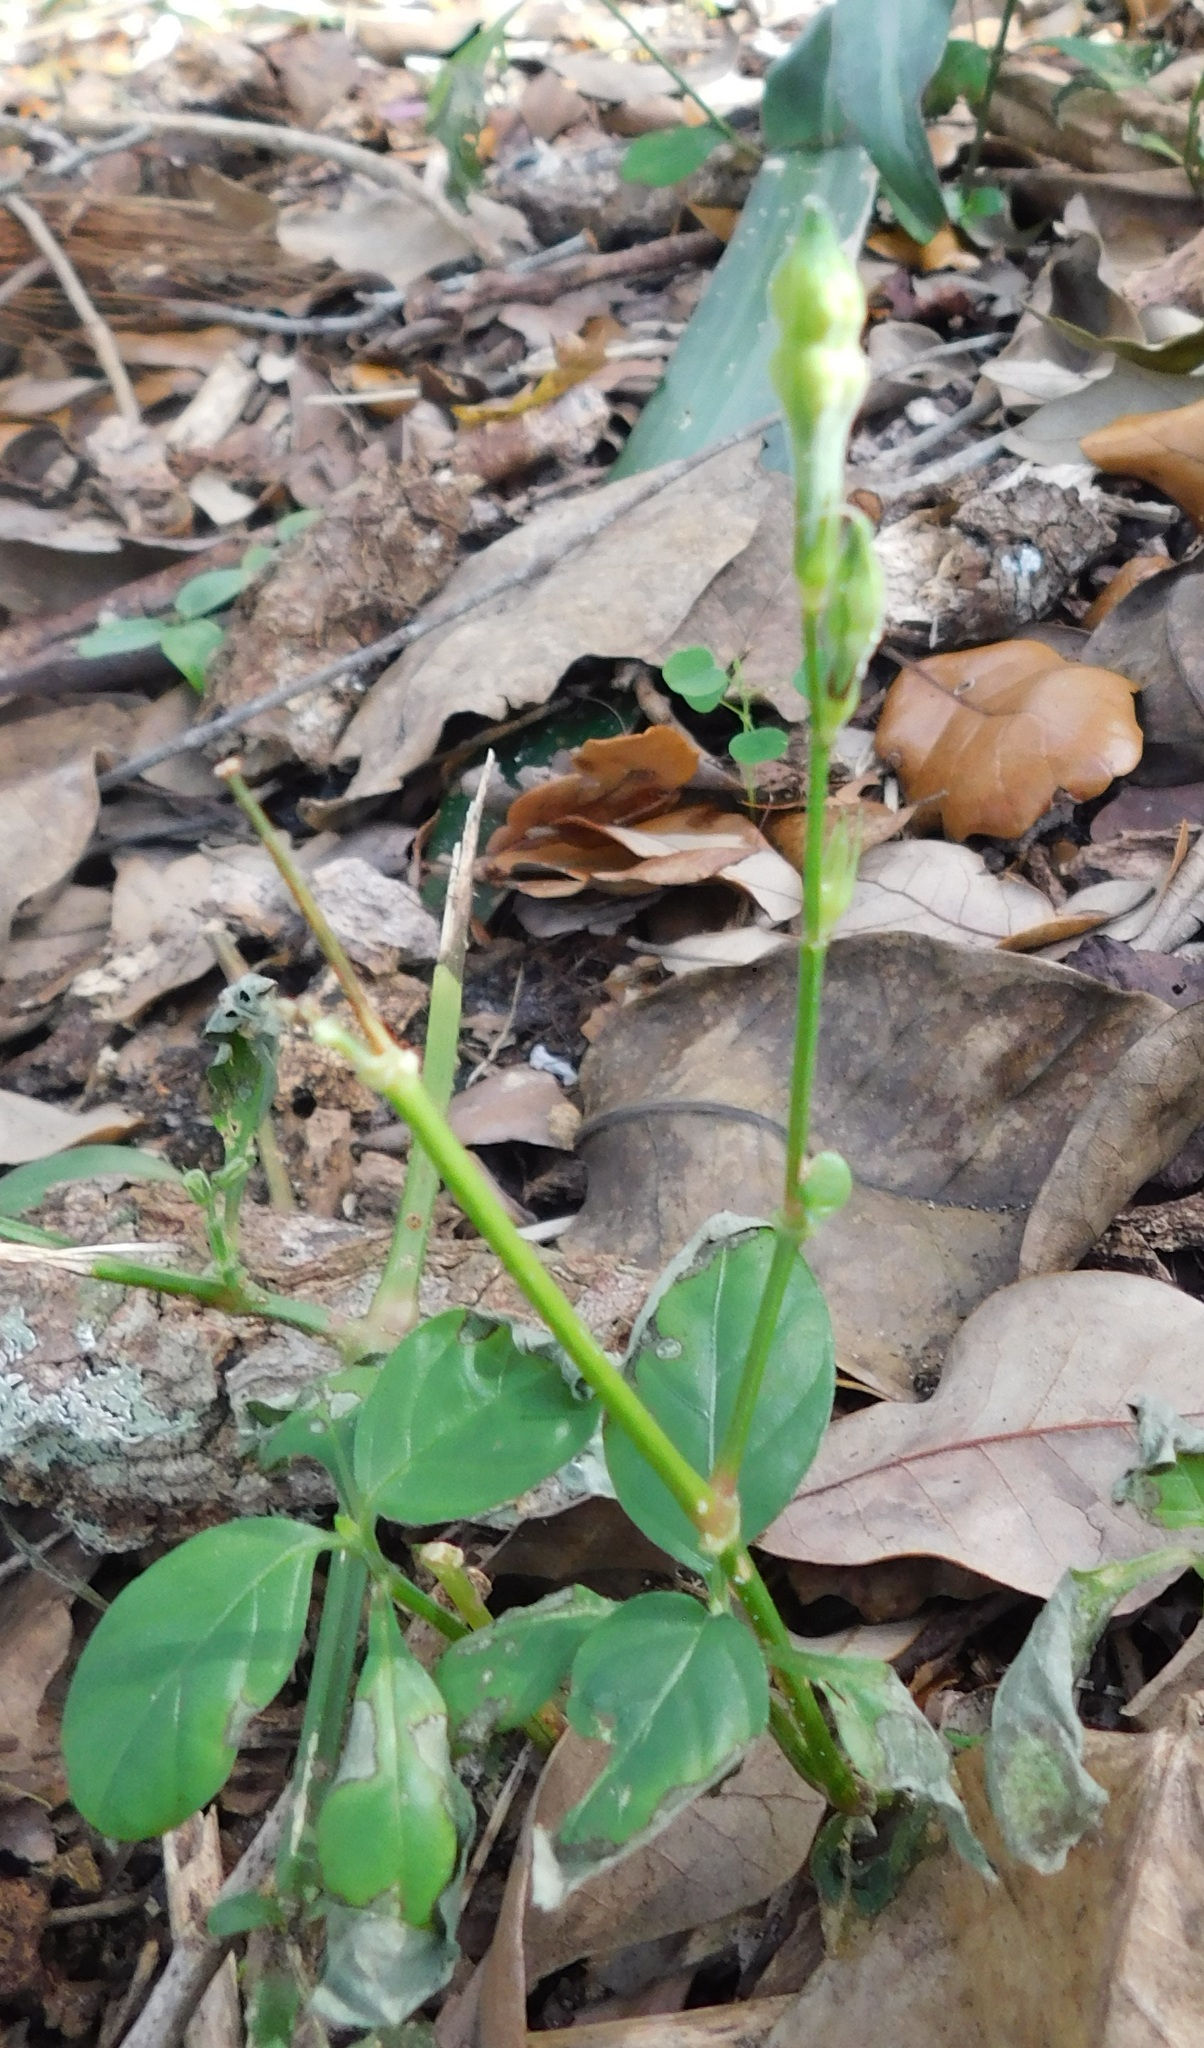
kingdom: Plantae
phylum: Tracheophyta
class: Magnoliopsida
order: Lamiales
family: Acanthaceae
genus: Asystasia
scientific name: Asystasia gangetica
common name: Chinese violet
